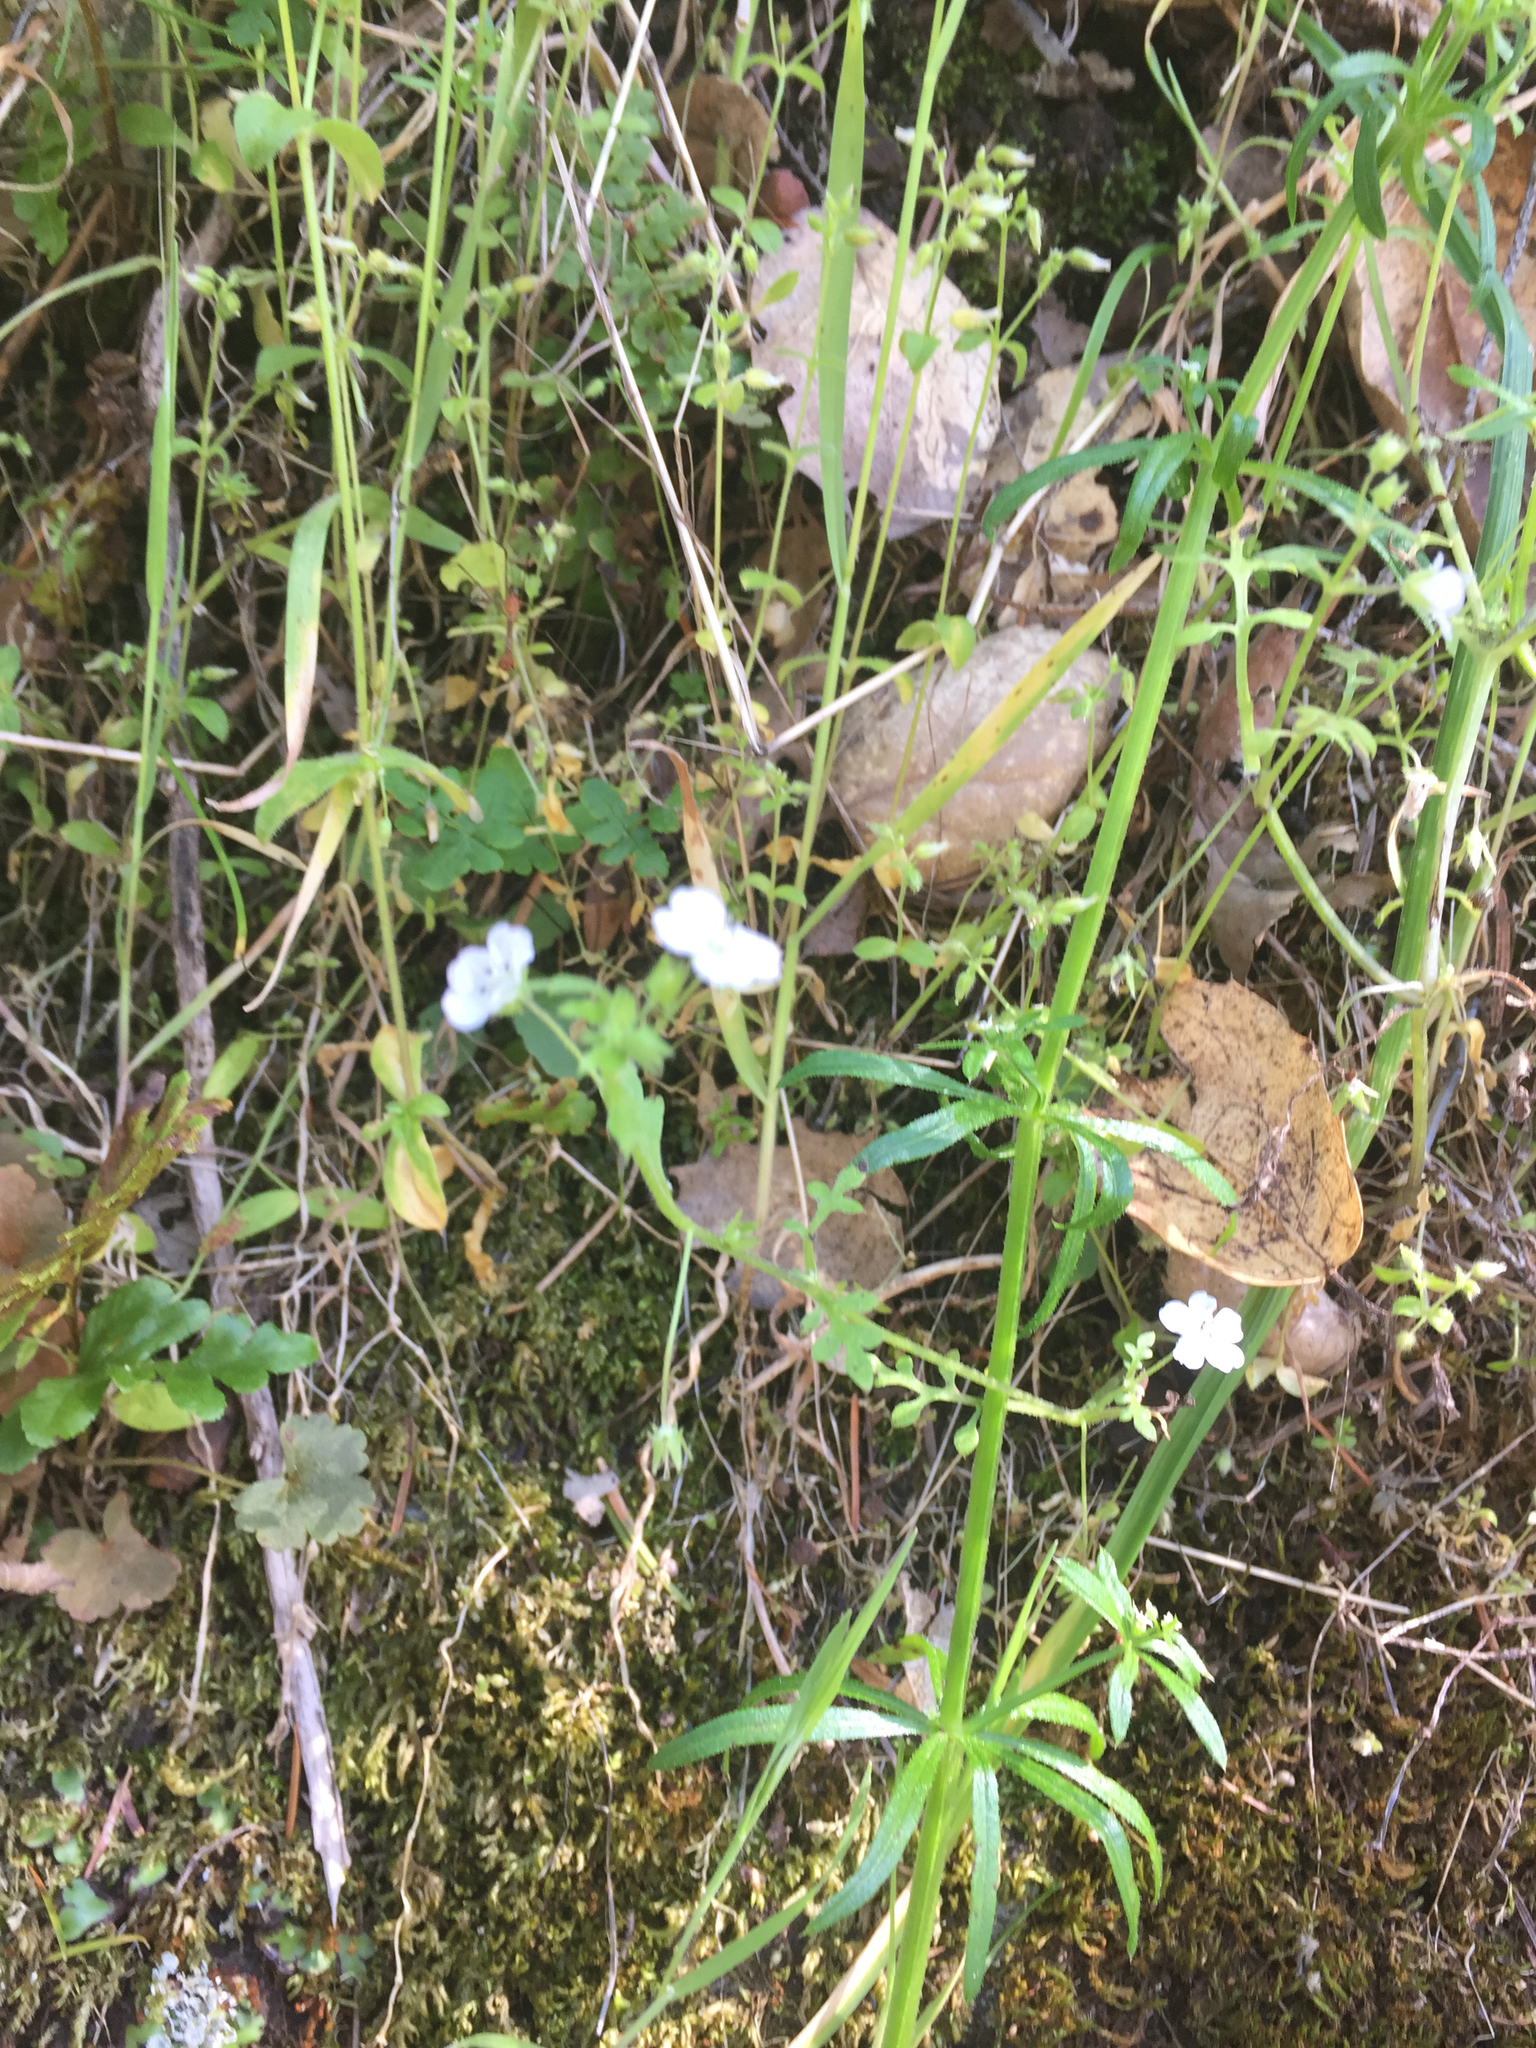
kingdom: Plantae
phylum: Tracheophyta
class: Magnoliopsida
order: Boraginales
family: Hydrophyllaceae
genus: Nemophila
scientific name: Nemophila heterophylla
